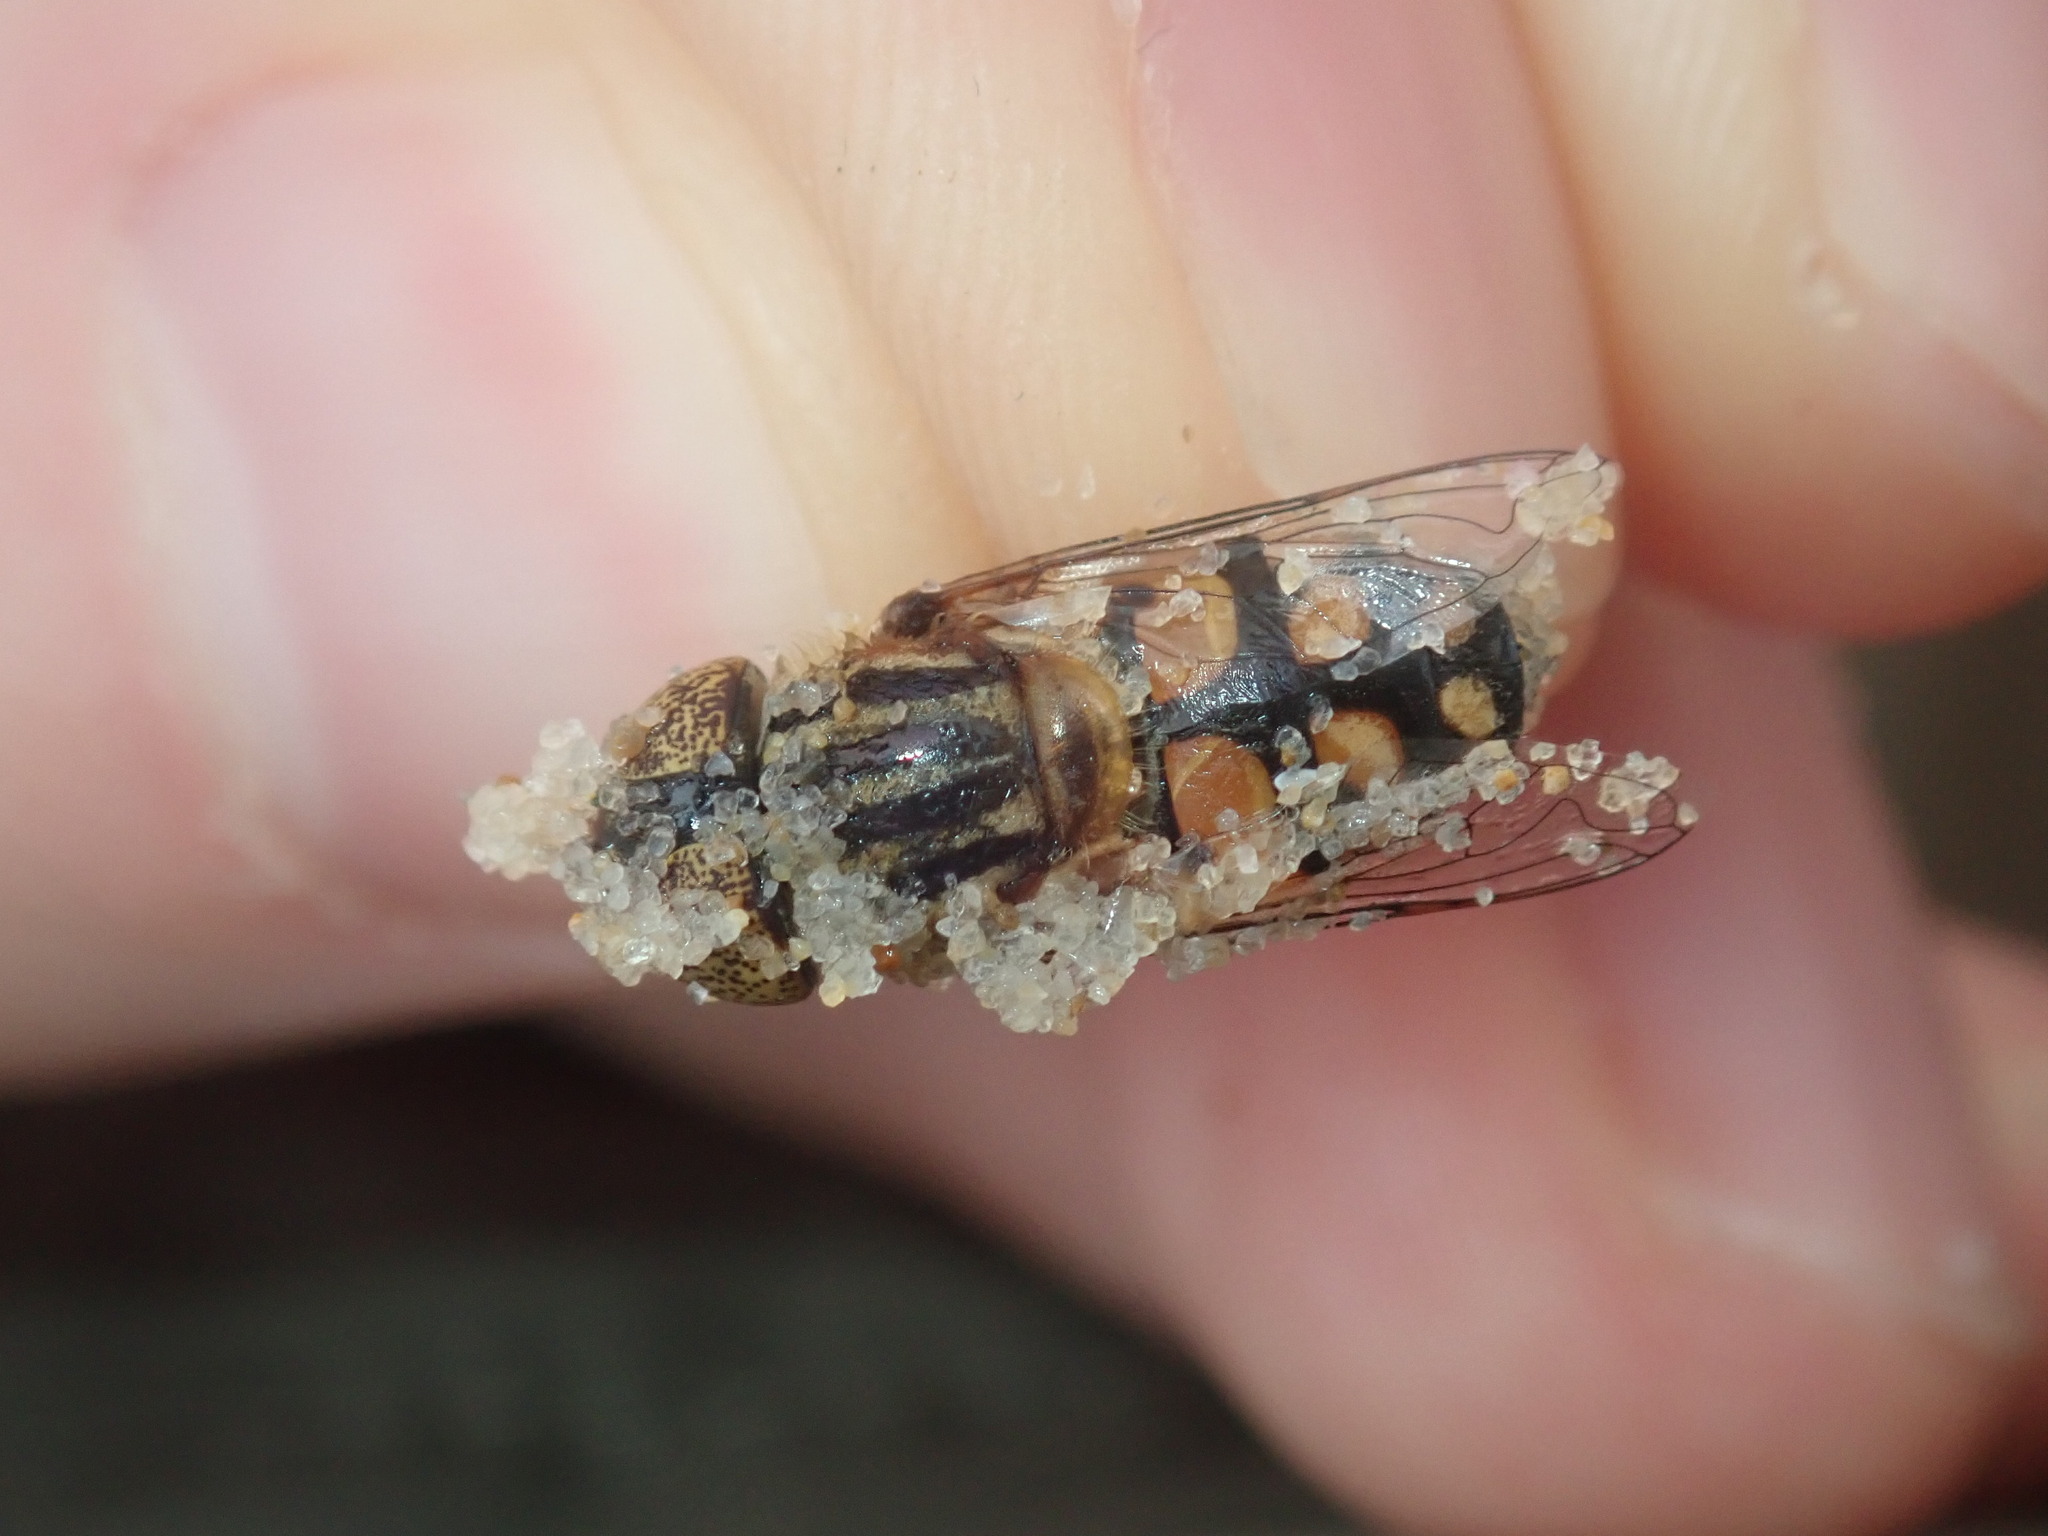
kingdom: Animalia
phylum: Arthropoda
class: Insecta
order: Diptera
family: Syrphidae
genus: Eristalinus
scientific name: Eristalinus punctulatus
